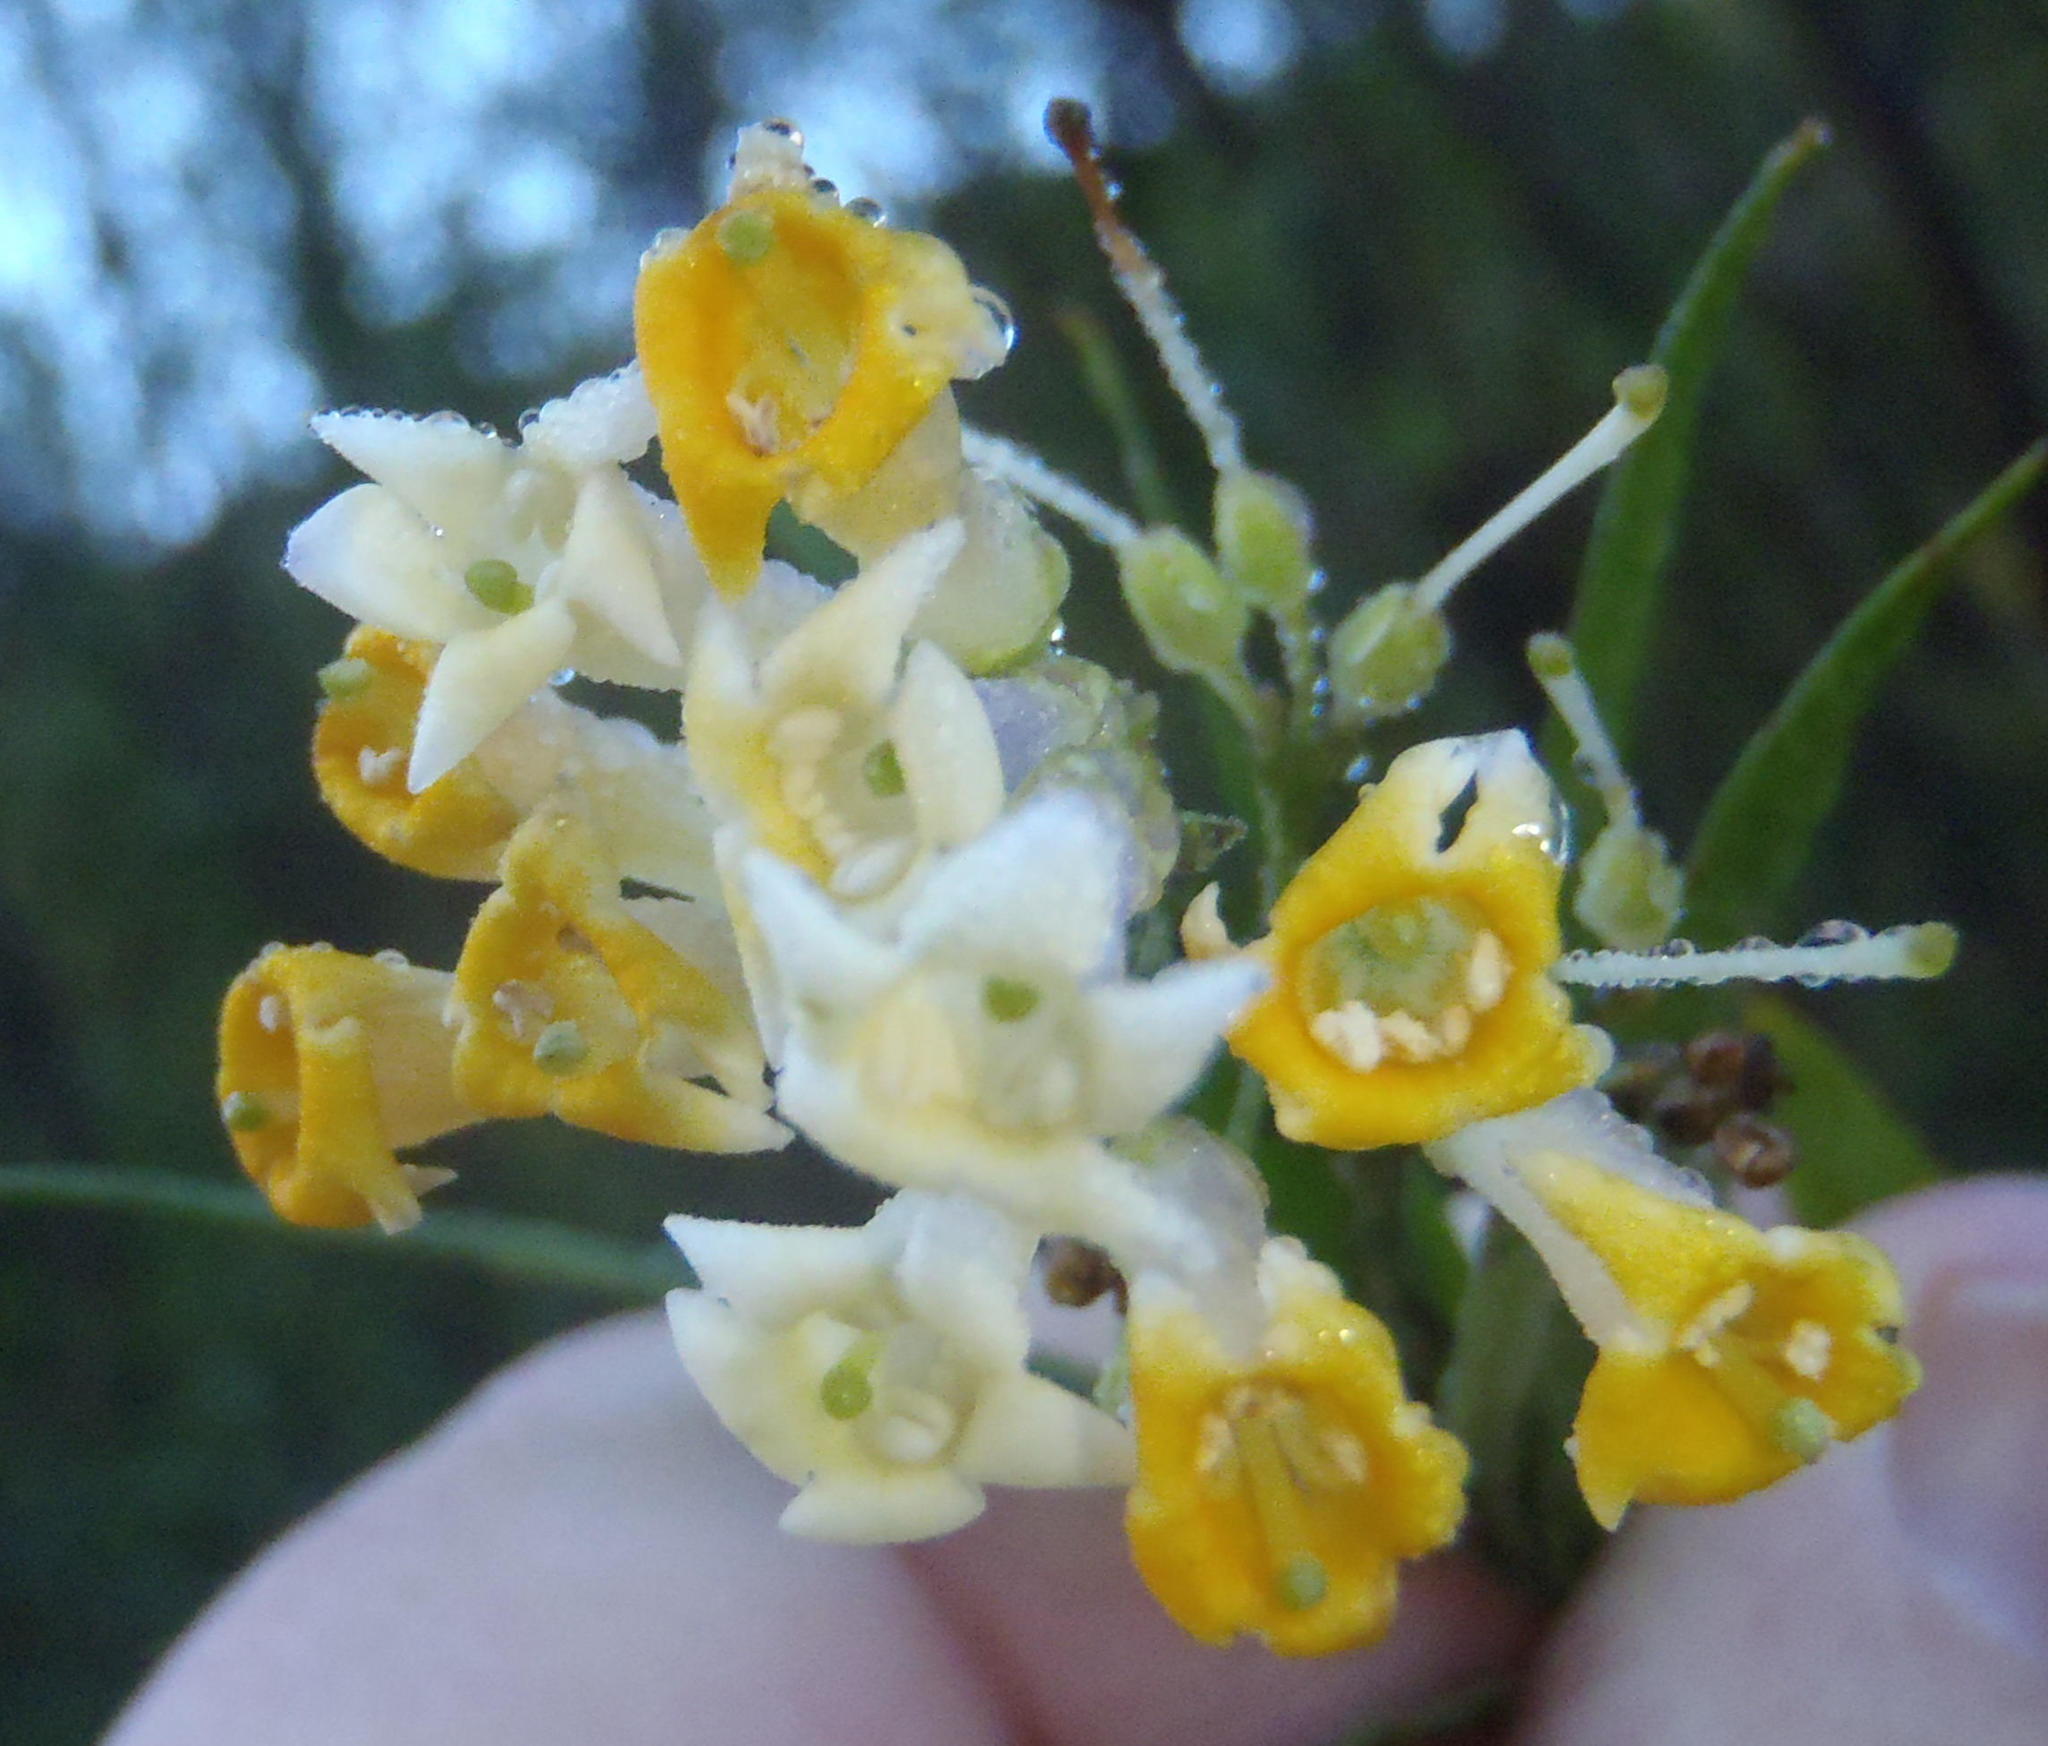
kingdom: Plantae
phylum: Tracheophyta
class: Magnoliopsida
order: Lamiales
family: Scrophulariaceae
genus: Freylinia
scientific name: Freylinia lanceolata
